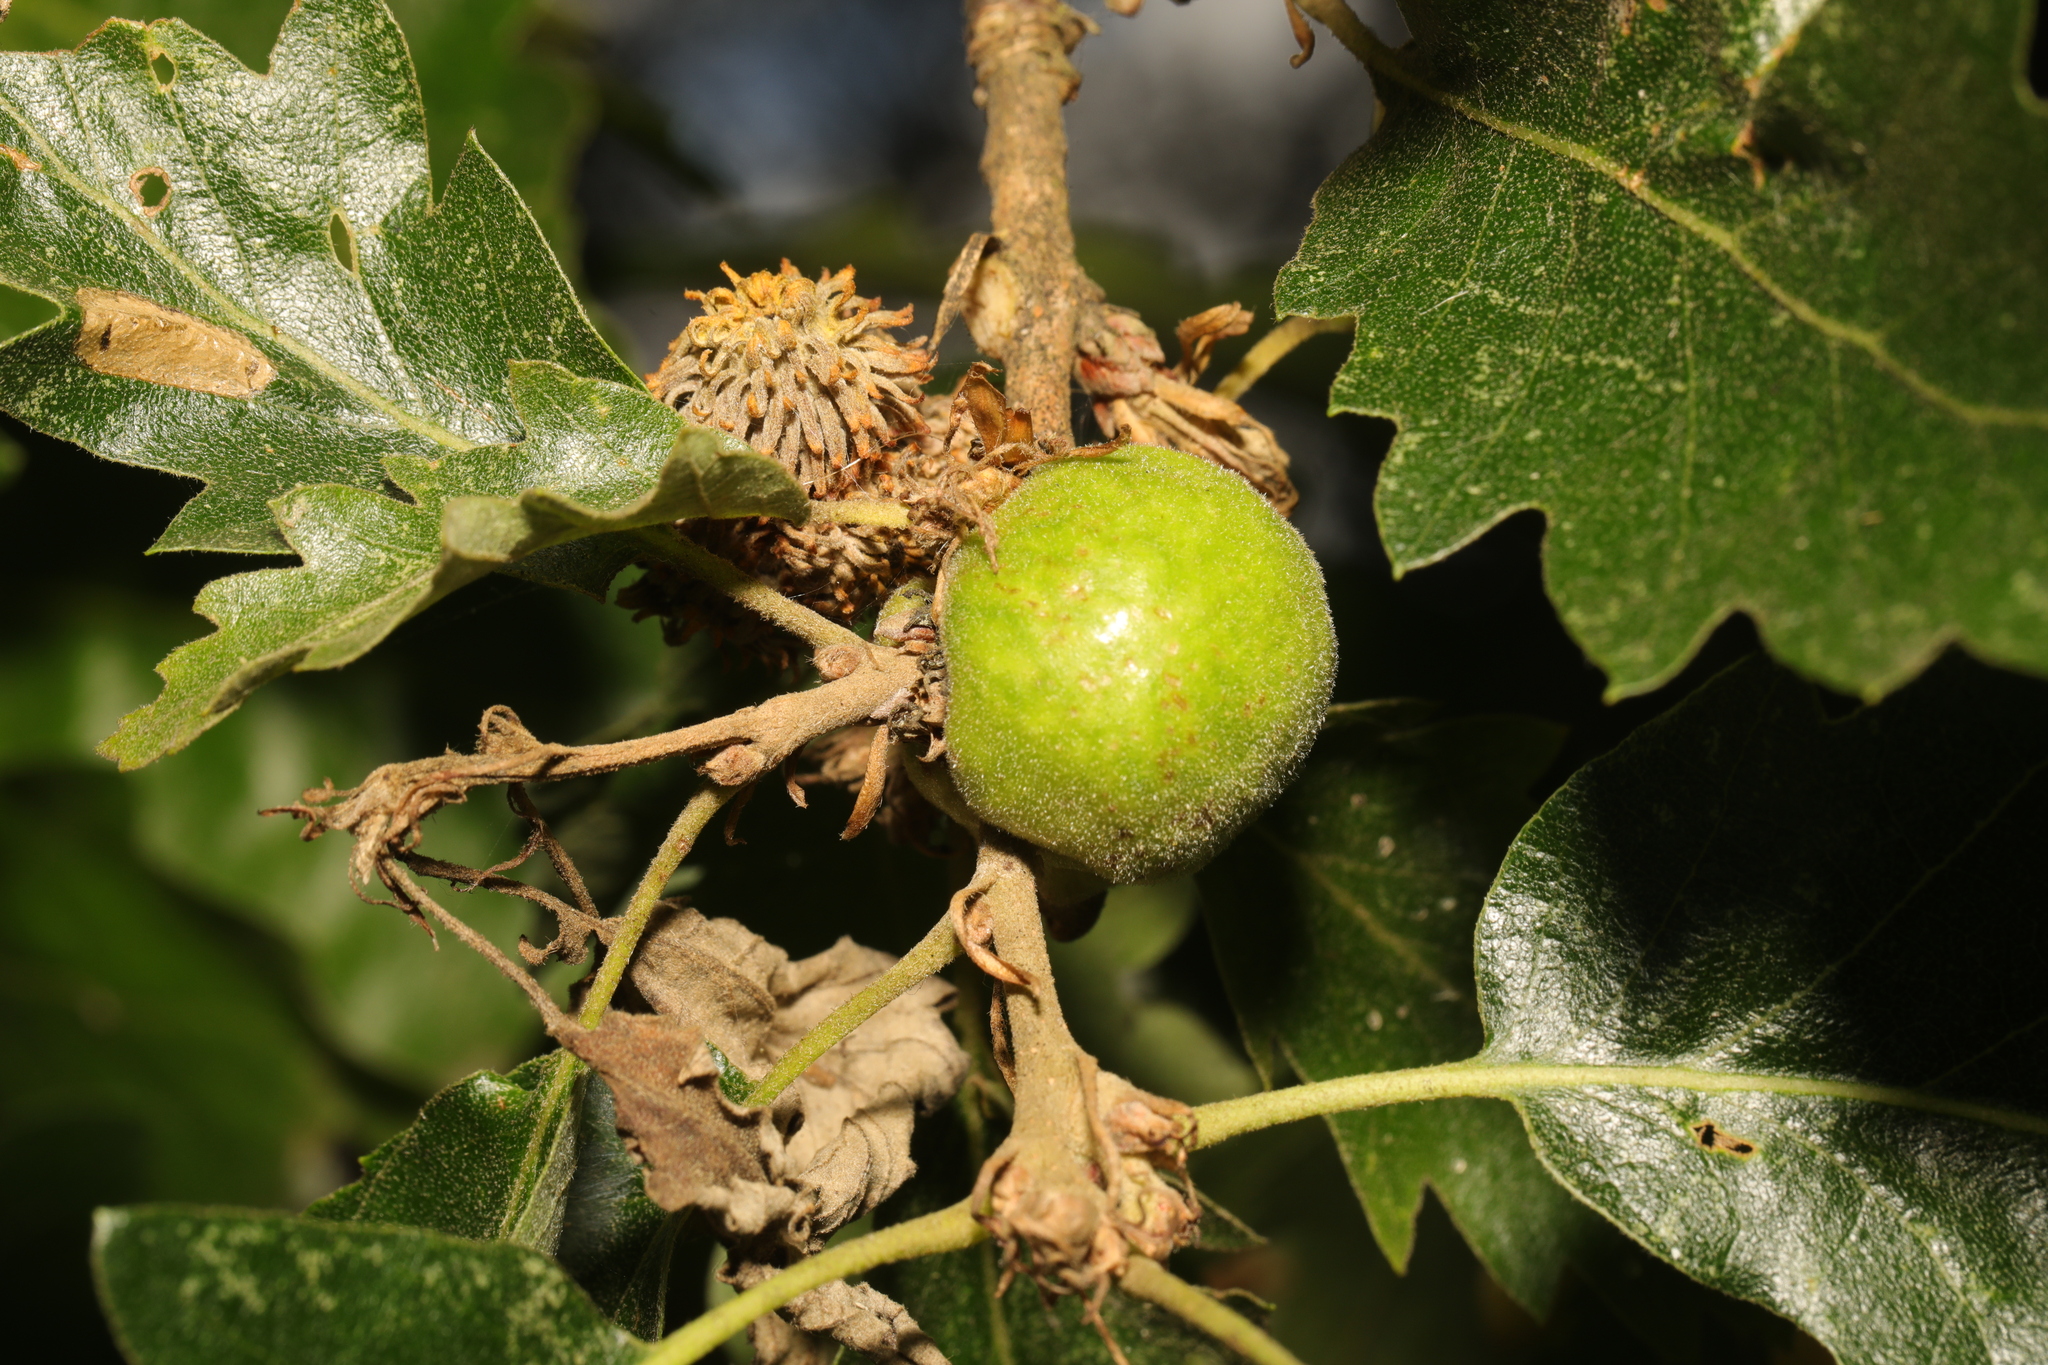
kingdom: Animalia
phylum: Arthropoda
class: Insecta
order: Hymenoptera
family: Cynipidae
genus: Aphelonyx
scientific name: Aphelonyx cerricola
